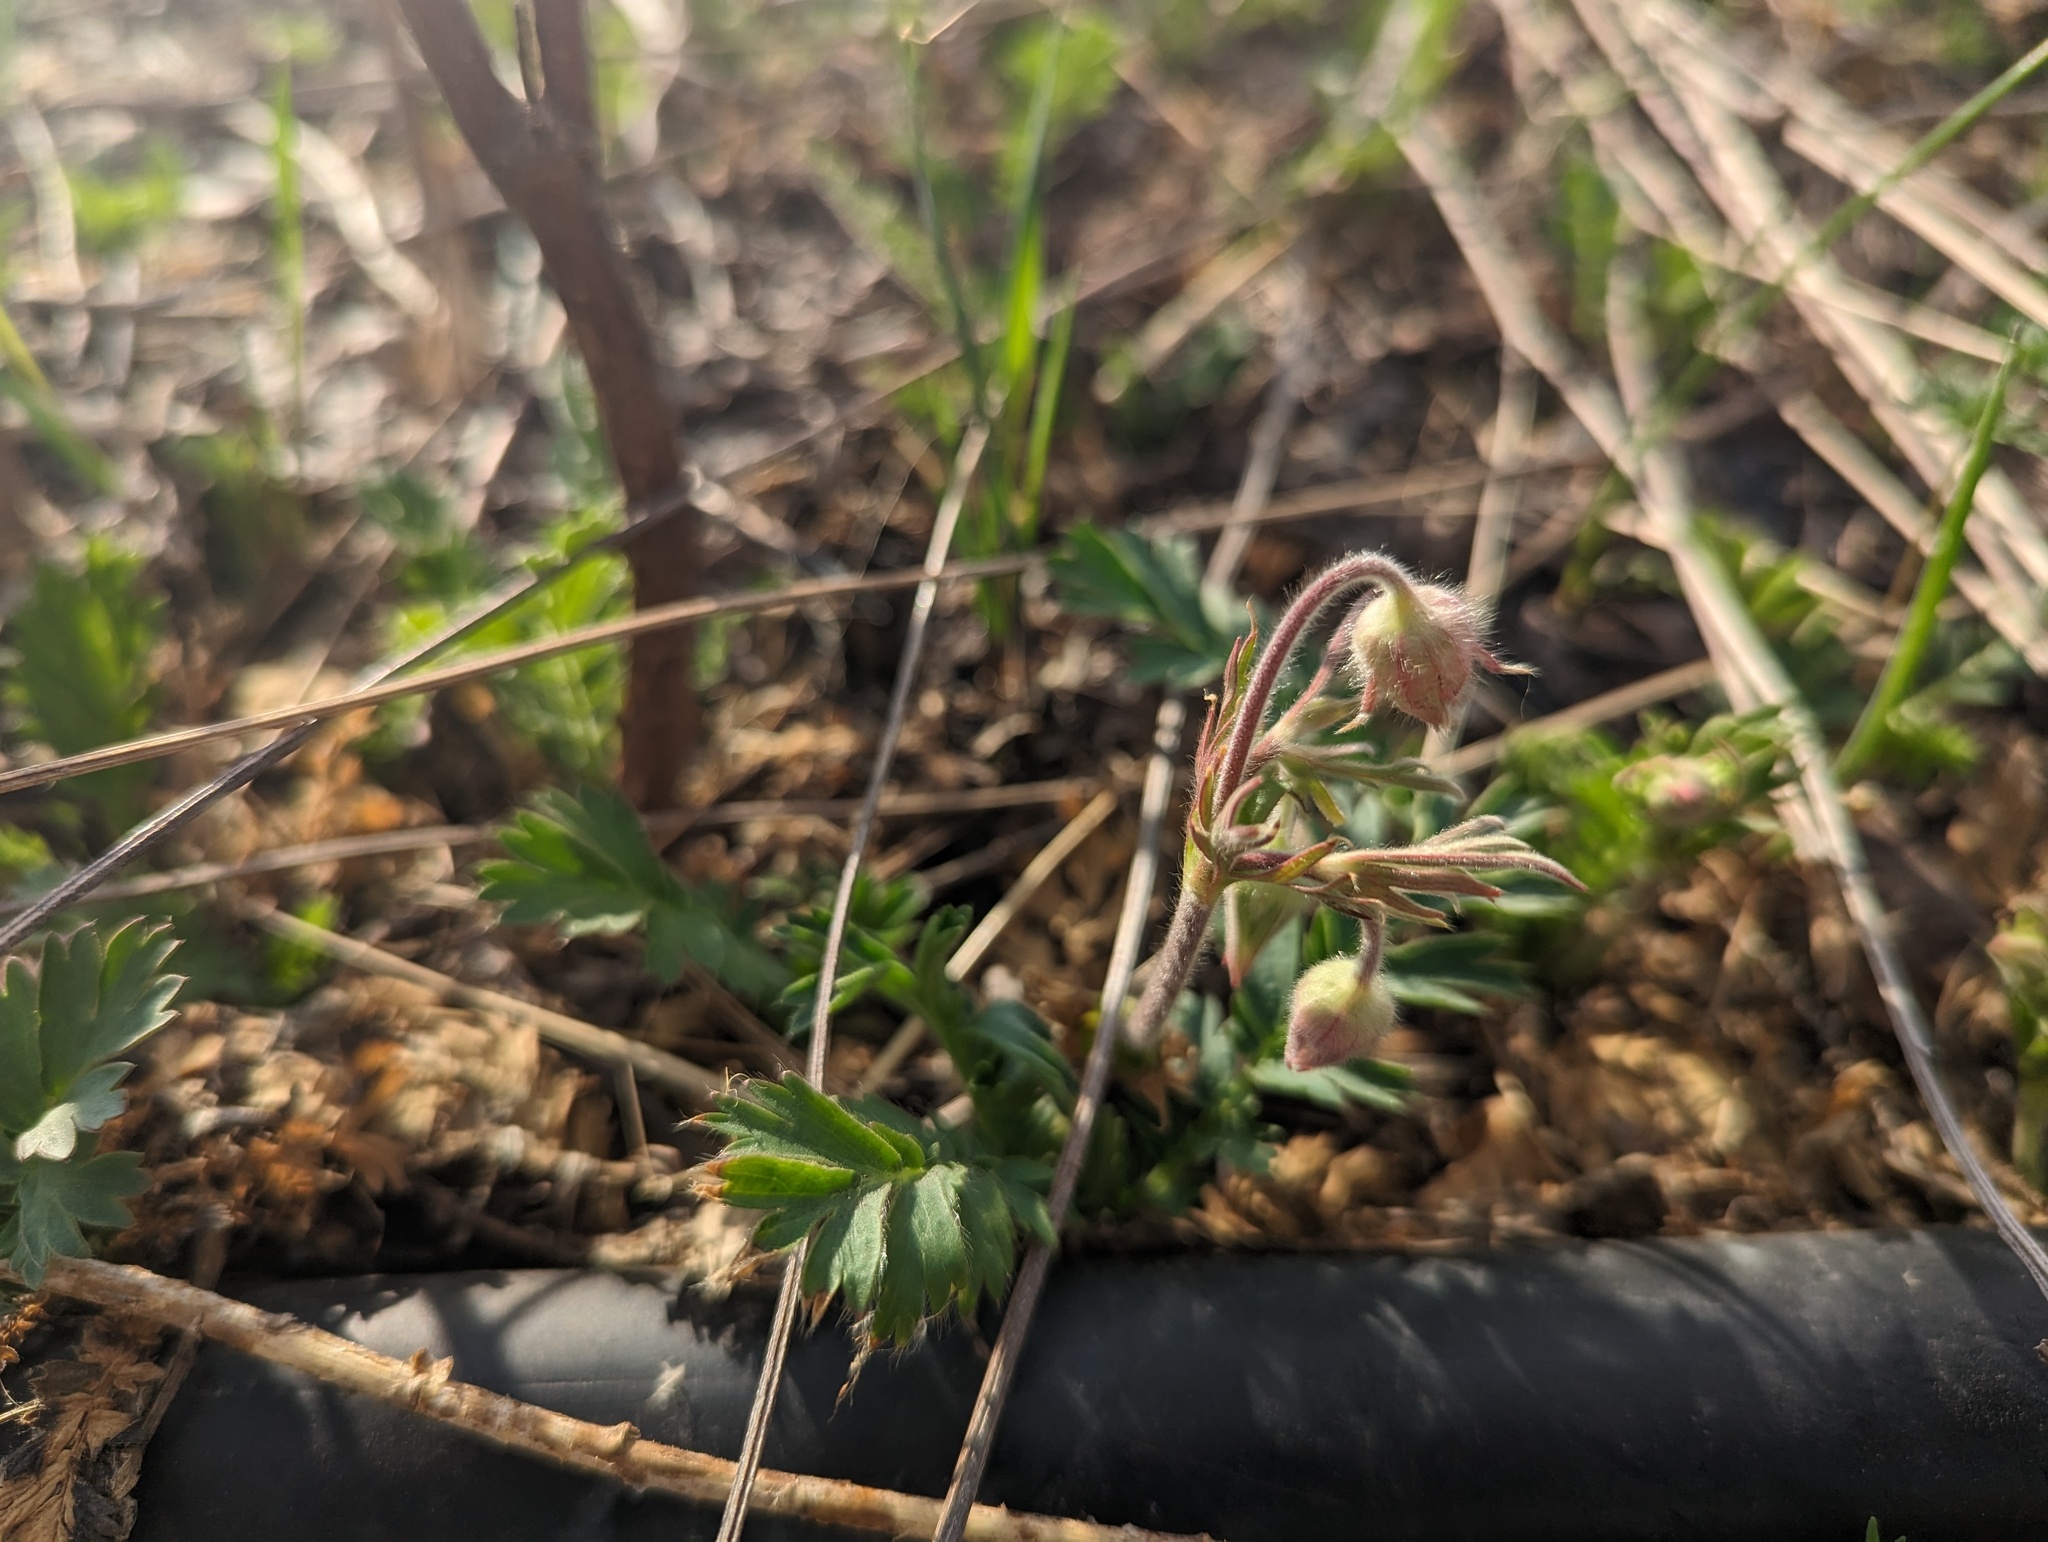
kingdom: Plantae
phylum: Tracheophyta
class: Magnoliopsida
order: Rosales
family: Rosaceae
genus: Geum
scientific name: Geum triflorum
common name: Old man's whiskers
